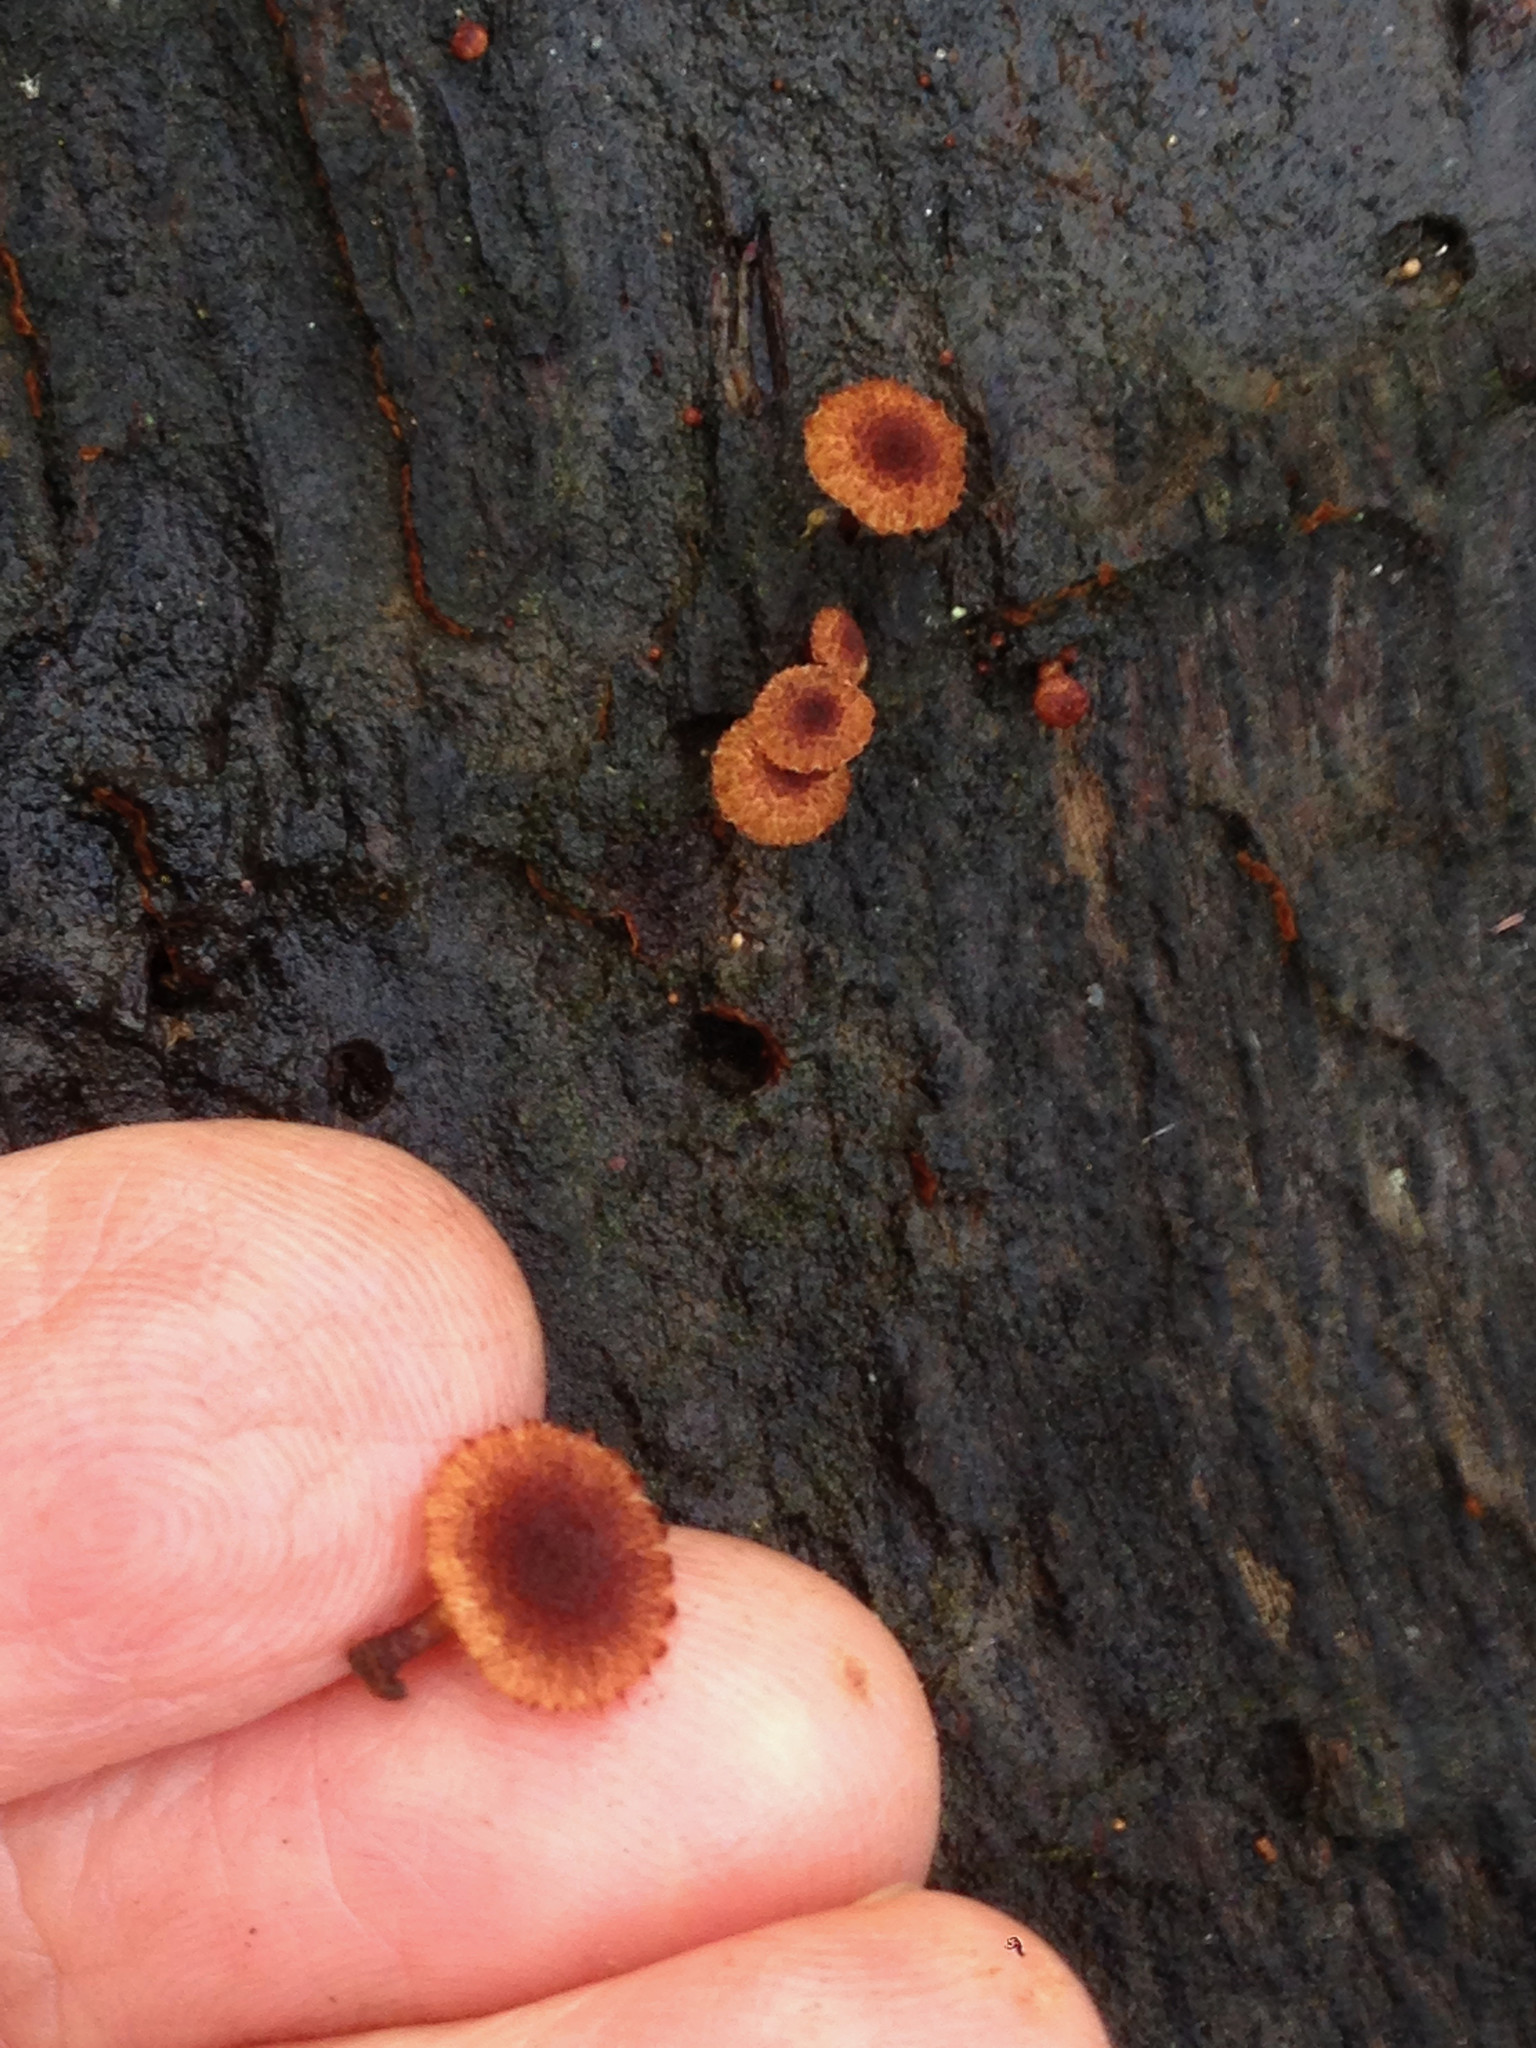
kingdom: Fungi
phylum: Basidiomycota
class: Agaricomycetes
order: Agaricales
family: Tubariaceae
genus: Phaeomarasmius
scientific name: Phaeomarasmius erinaceus
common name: Hedgehog scalycap
